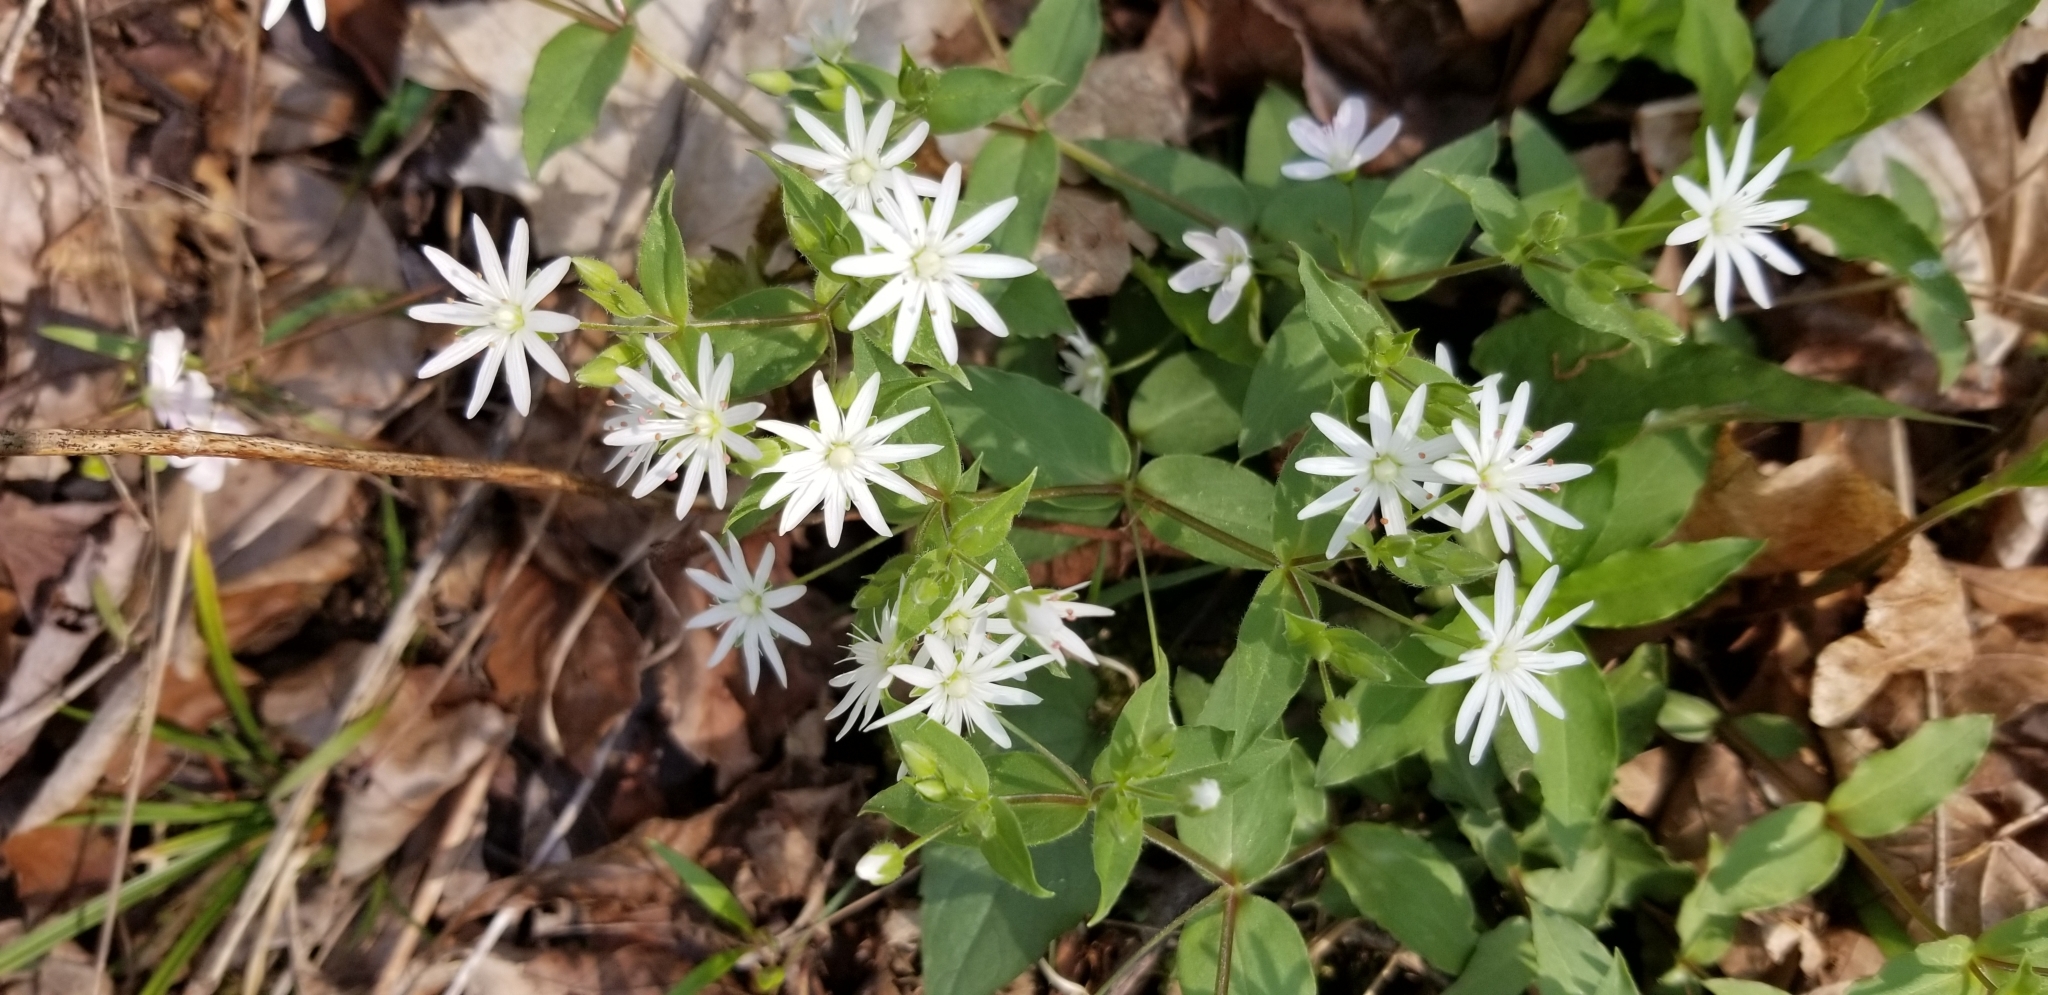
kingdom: Plantae
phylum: Tracheophyta
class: Magnoliopsida
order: Caryophyllales
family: Caryophyllaceae
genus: Stellaria
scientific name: Stellaria pubera
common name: Star chickweed
